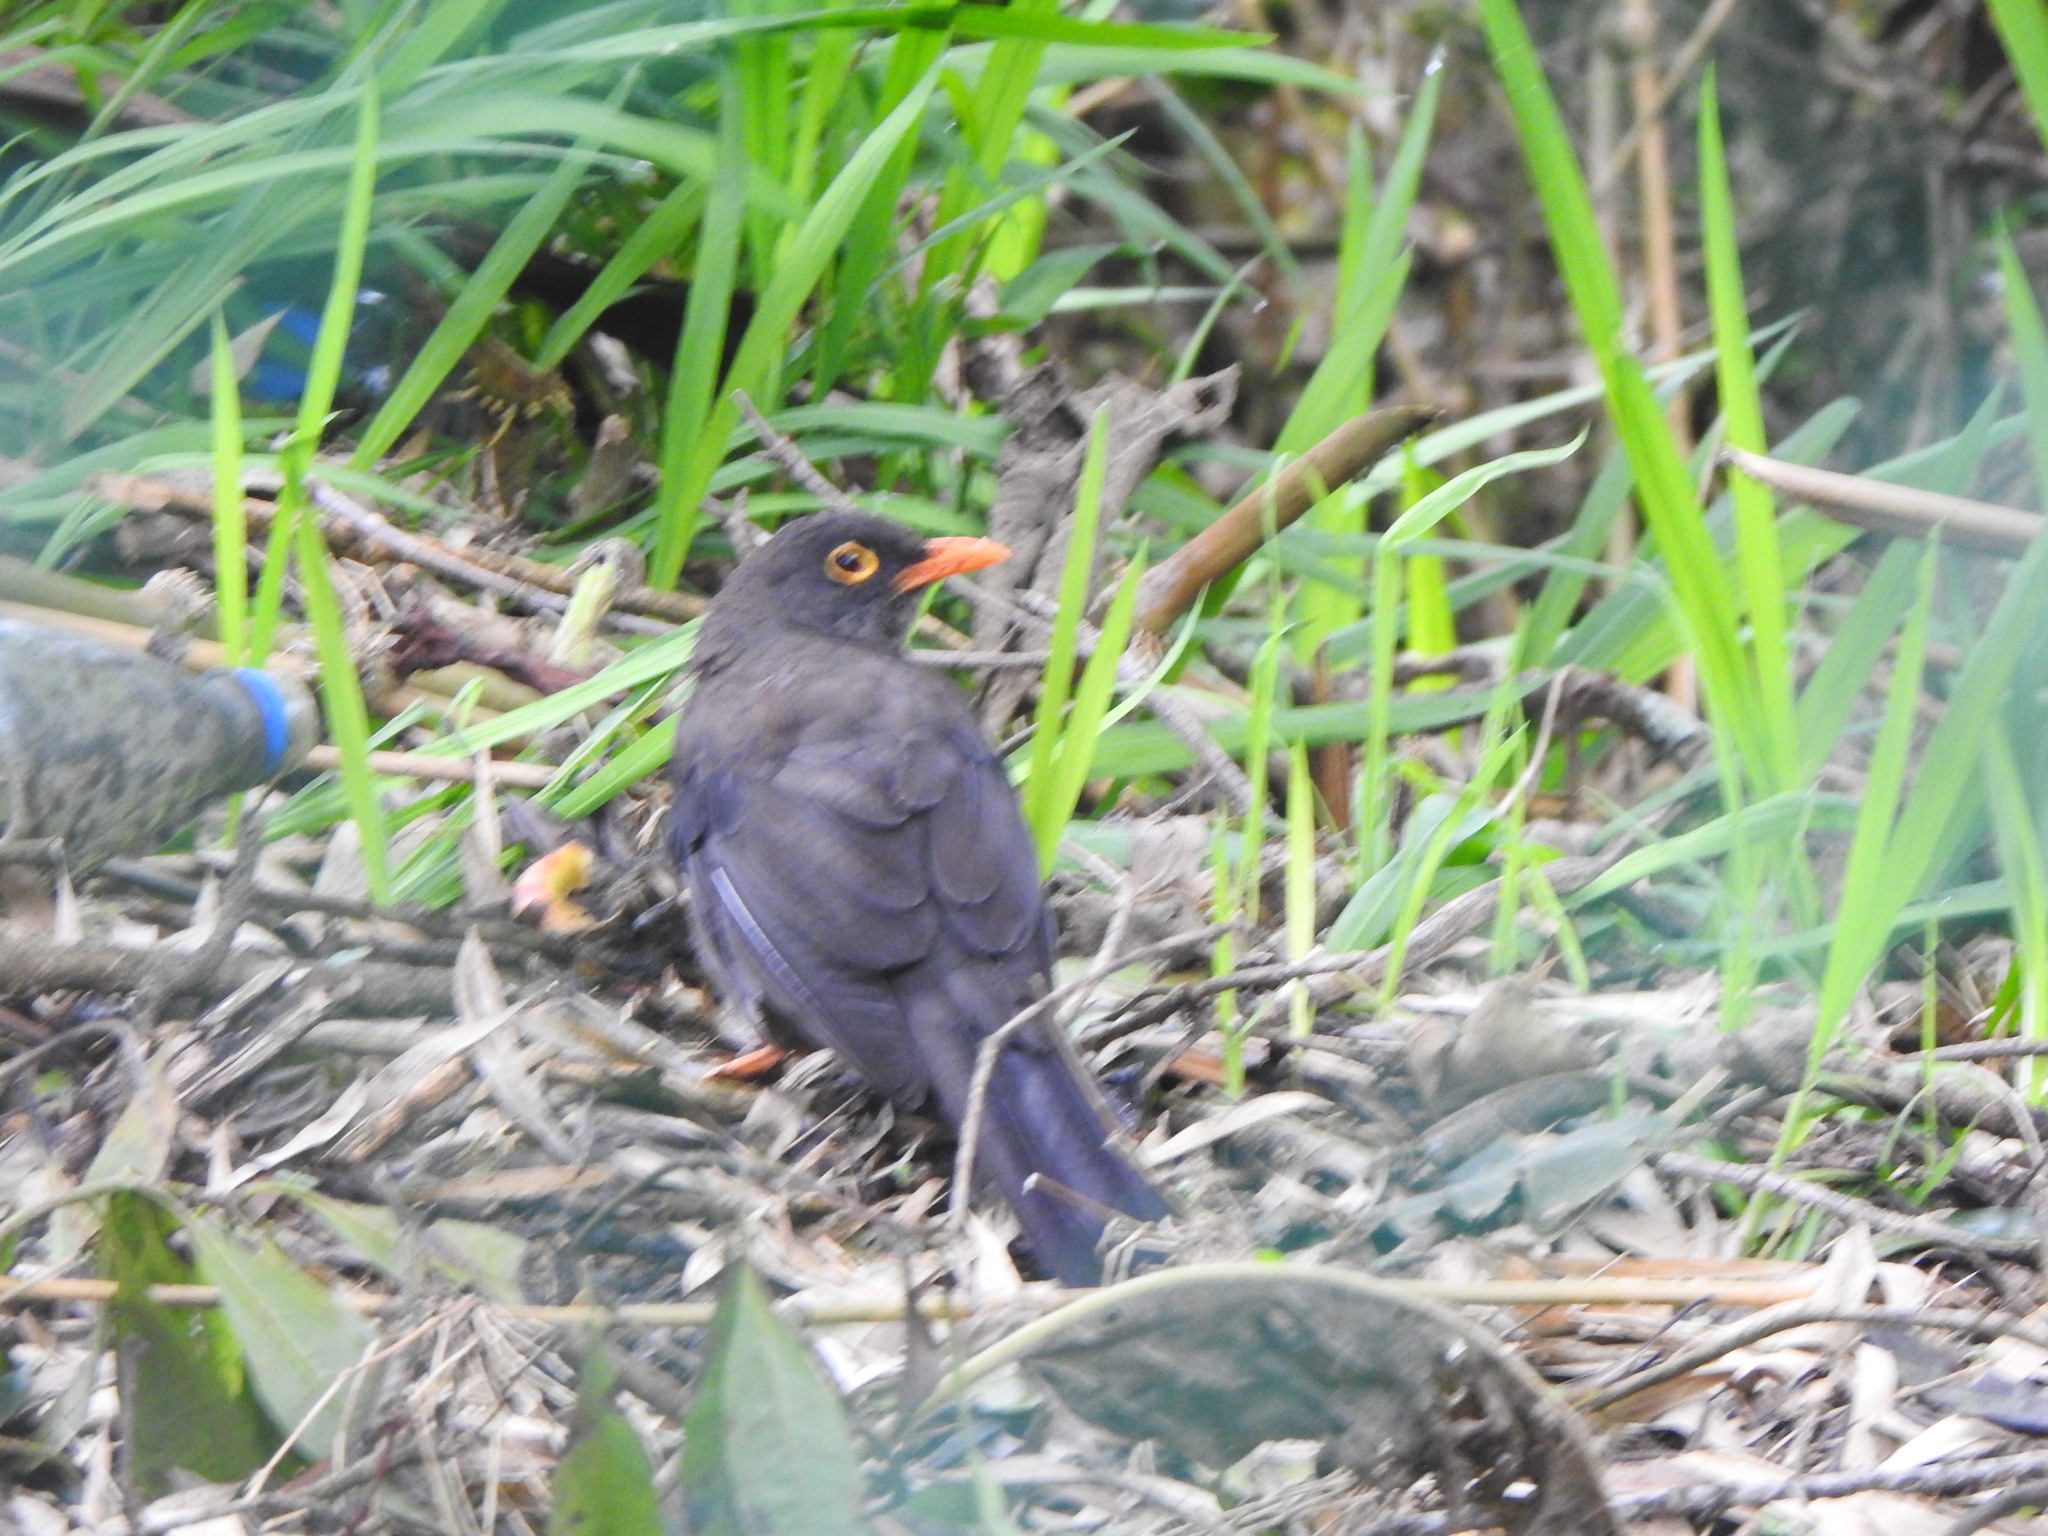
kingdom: Animalia
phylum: Chordata
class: Aves
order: Passeriformes
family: Turdidae
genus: Turdus
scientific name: Turdus fuscater
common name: Great thrush
